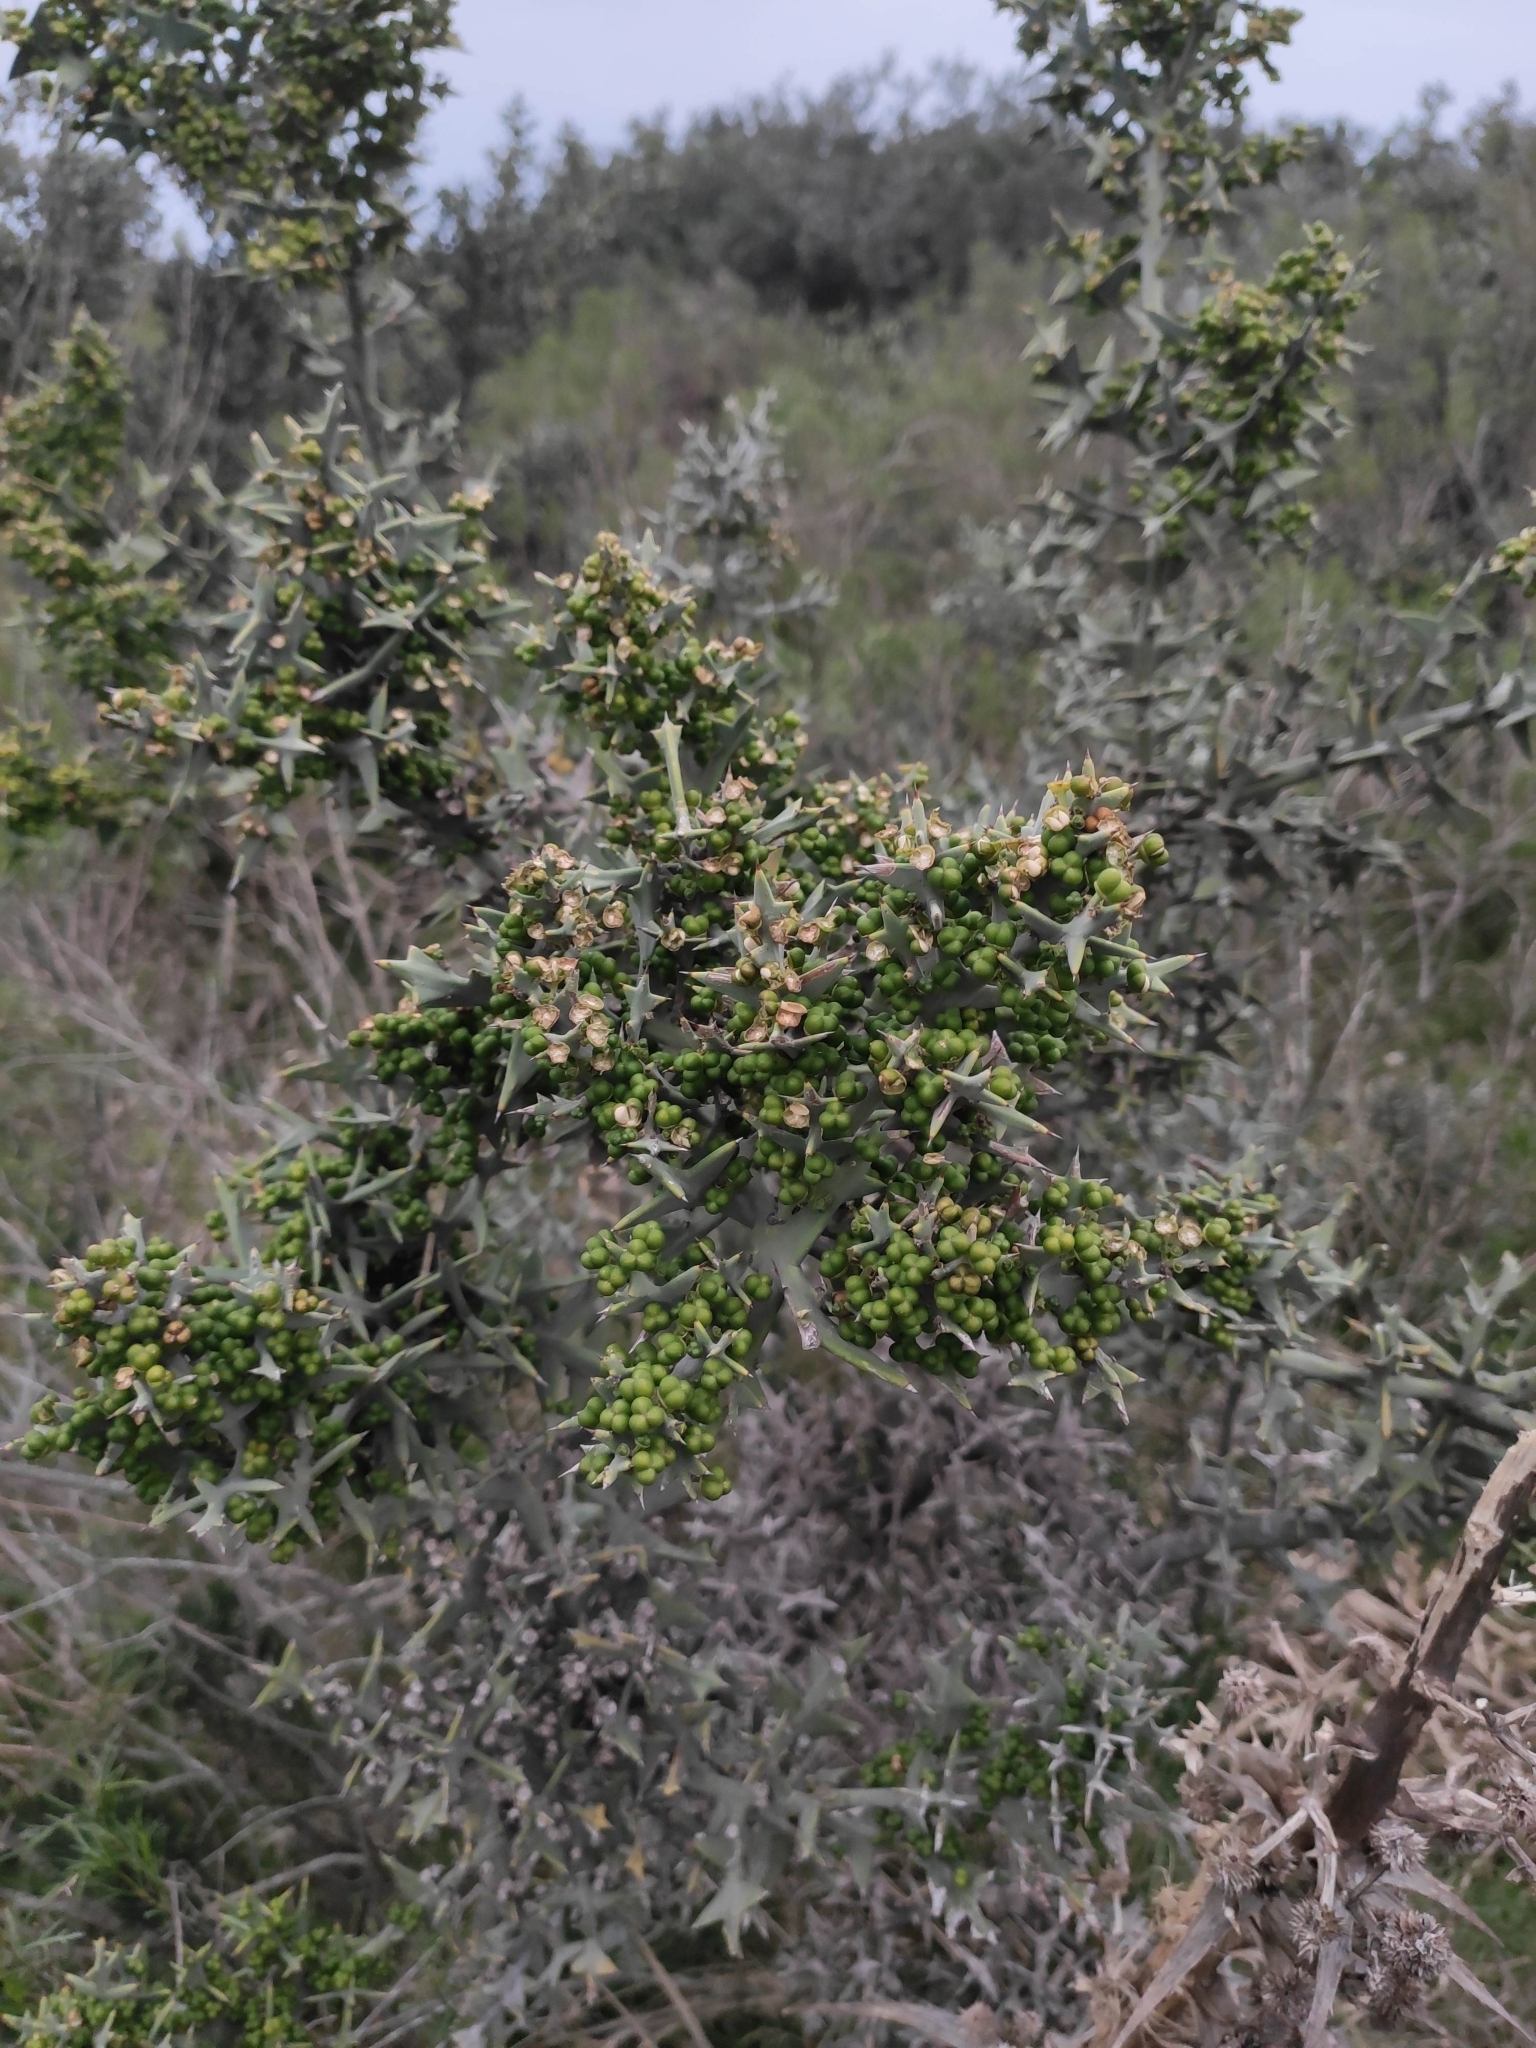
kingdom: Plantae
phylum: Tracheophyta
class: Magnoliopsida
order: Rosales
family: Rhamnaceae
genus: Colletia
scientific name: Colletia paradoxa
